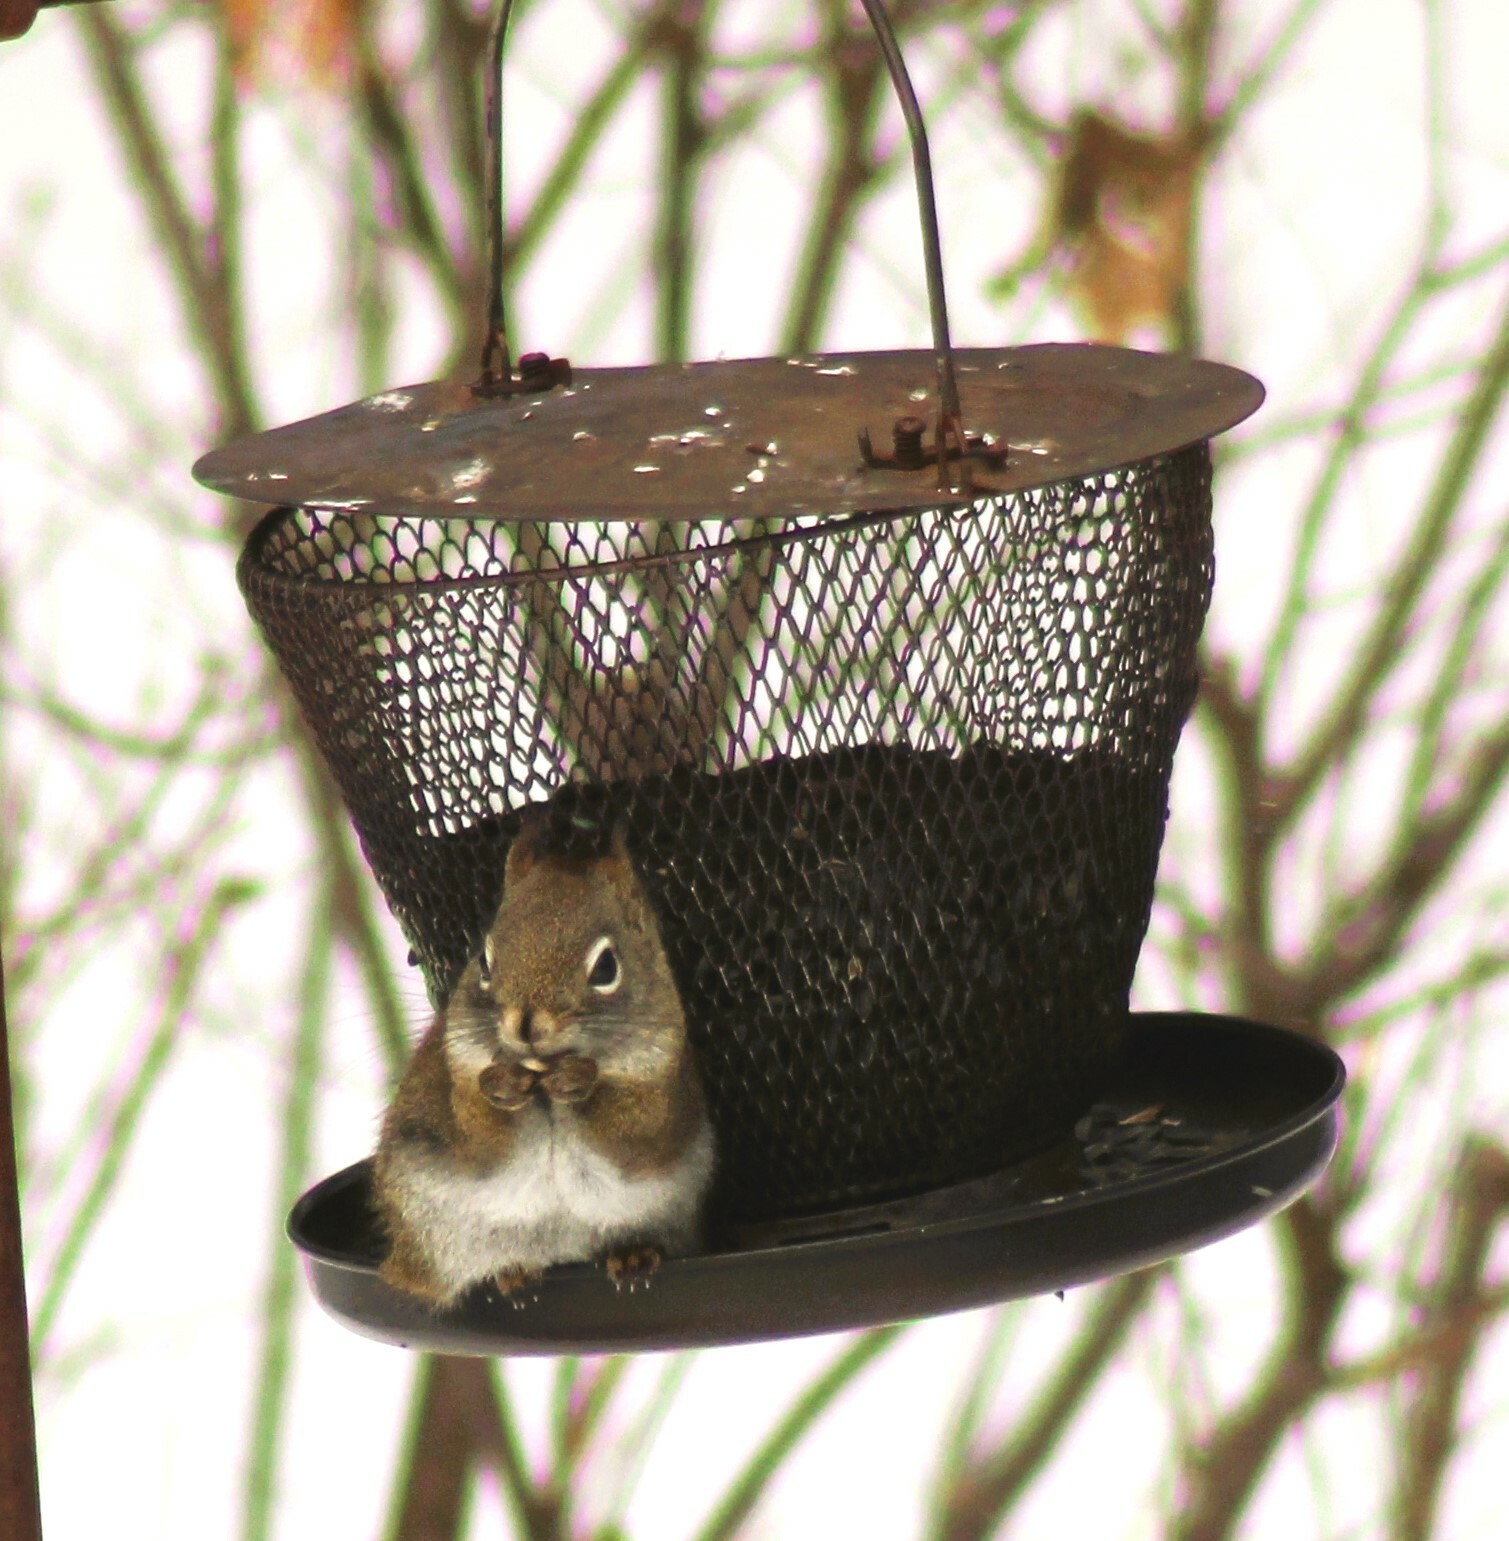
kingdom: Animalia
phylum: Chordata
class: Mammalia
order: Rodentia
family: Sciuridae
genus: Tamiasciurus
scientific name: Tamiasciurus hudsonicus
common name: Red squirrel
